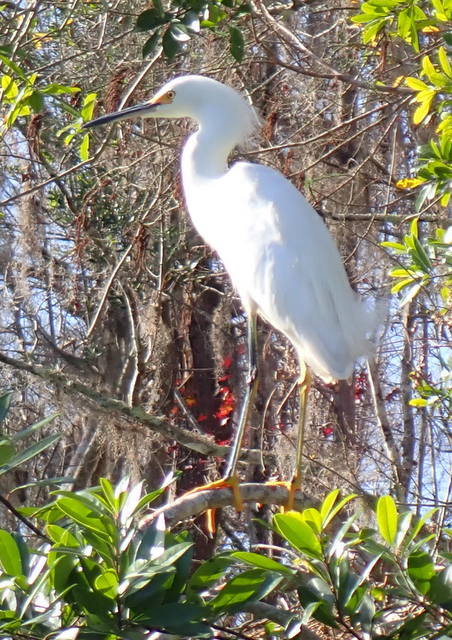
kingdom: Animalia
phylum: Chordata
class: Aves
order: Pelecaniformes
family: Ardeidae
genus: Egretta
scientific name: Egretta thula
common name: Snowy egret
